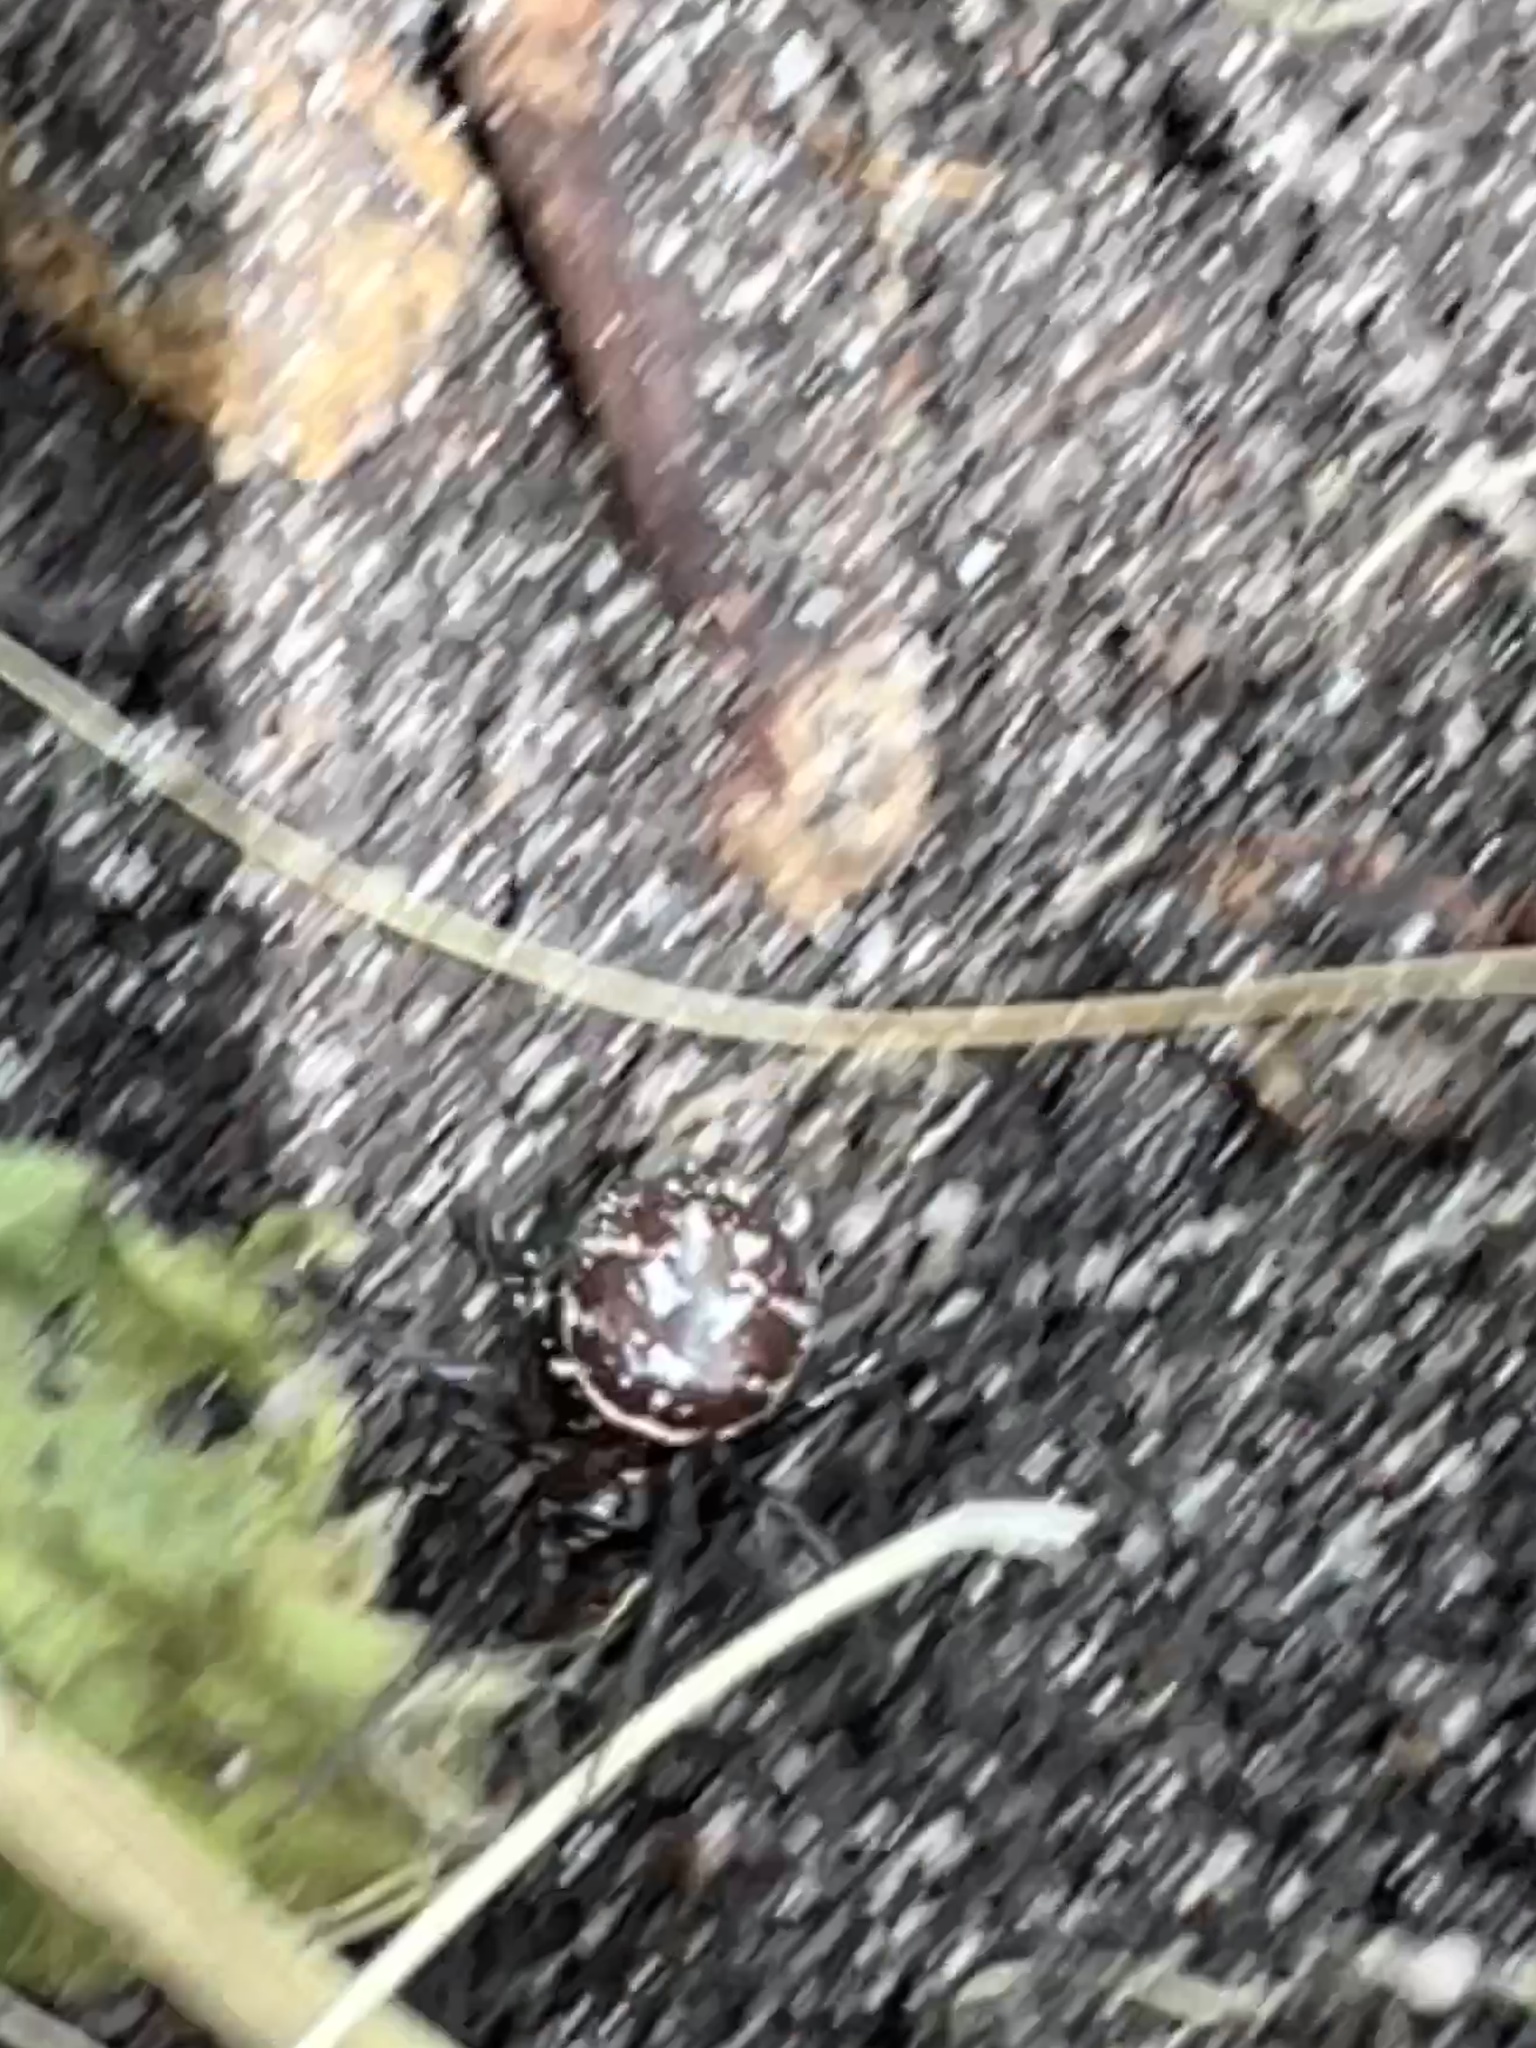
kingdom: Animalia
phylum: Arthropoda
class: Arachnida
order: Araneae
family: Theridiidae
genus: Steatoda
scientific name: Steatoda capensis
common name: Cobweb weaver
